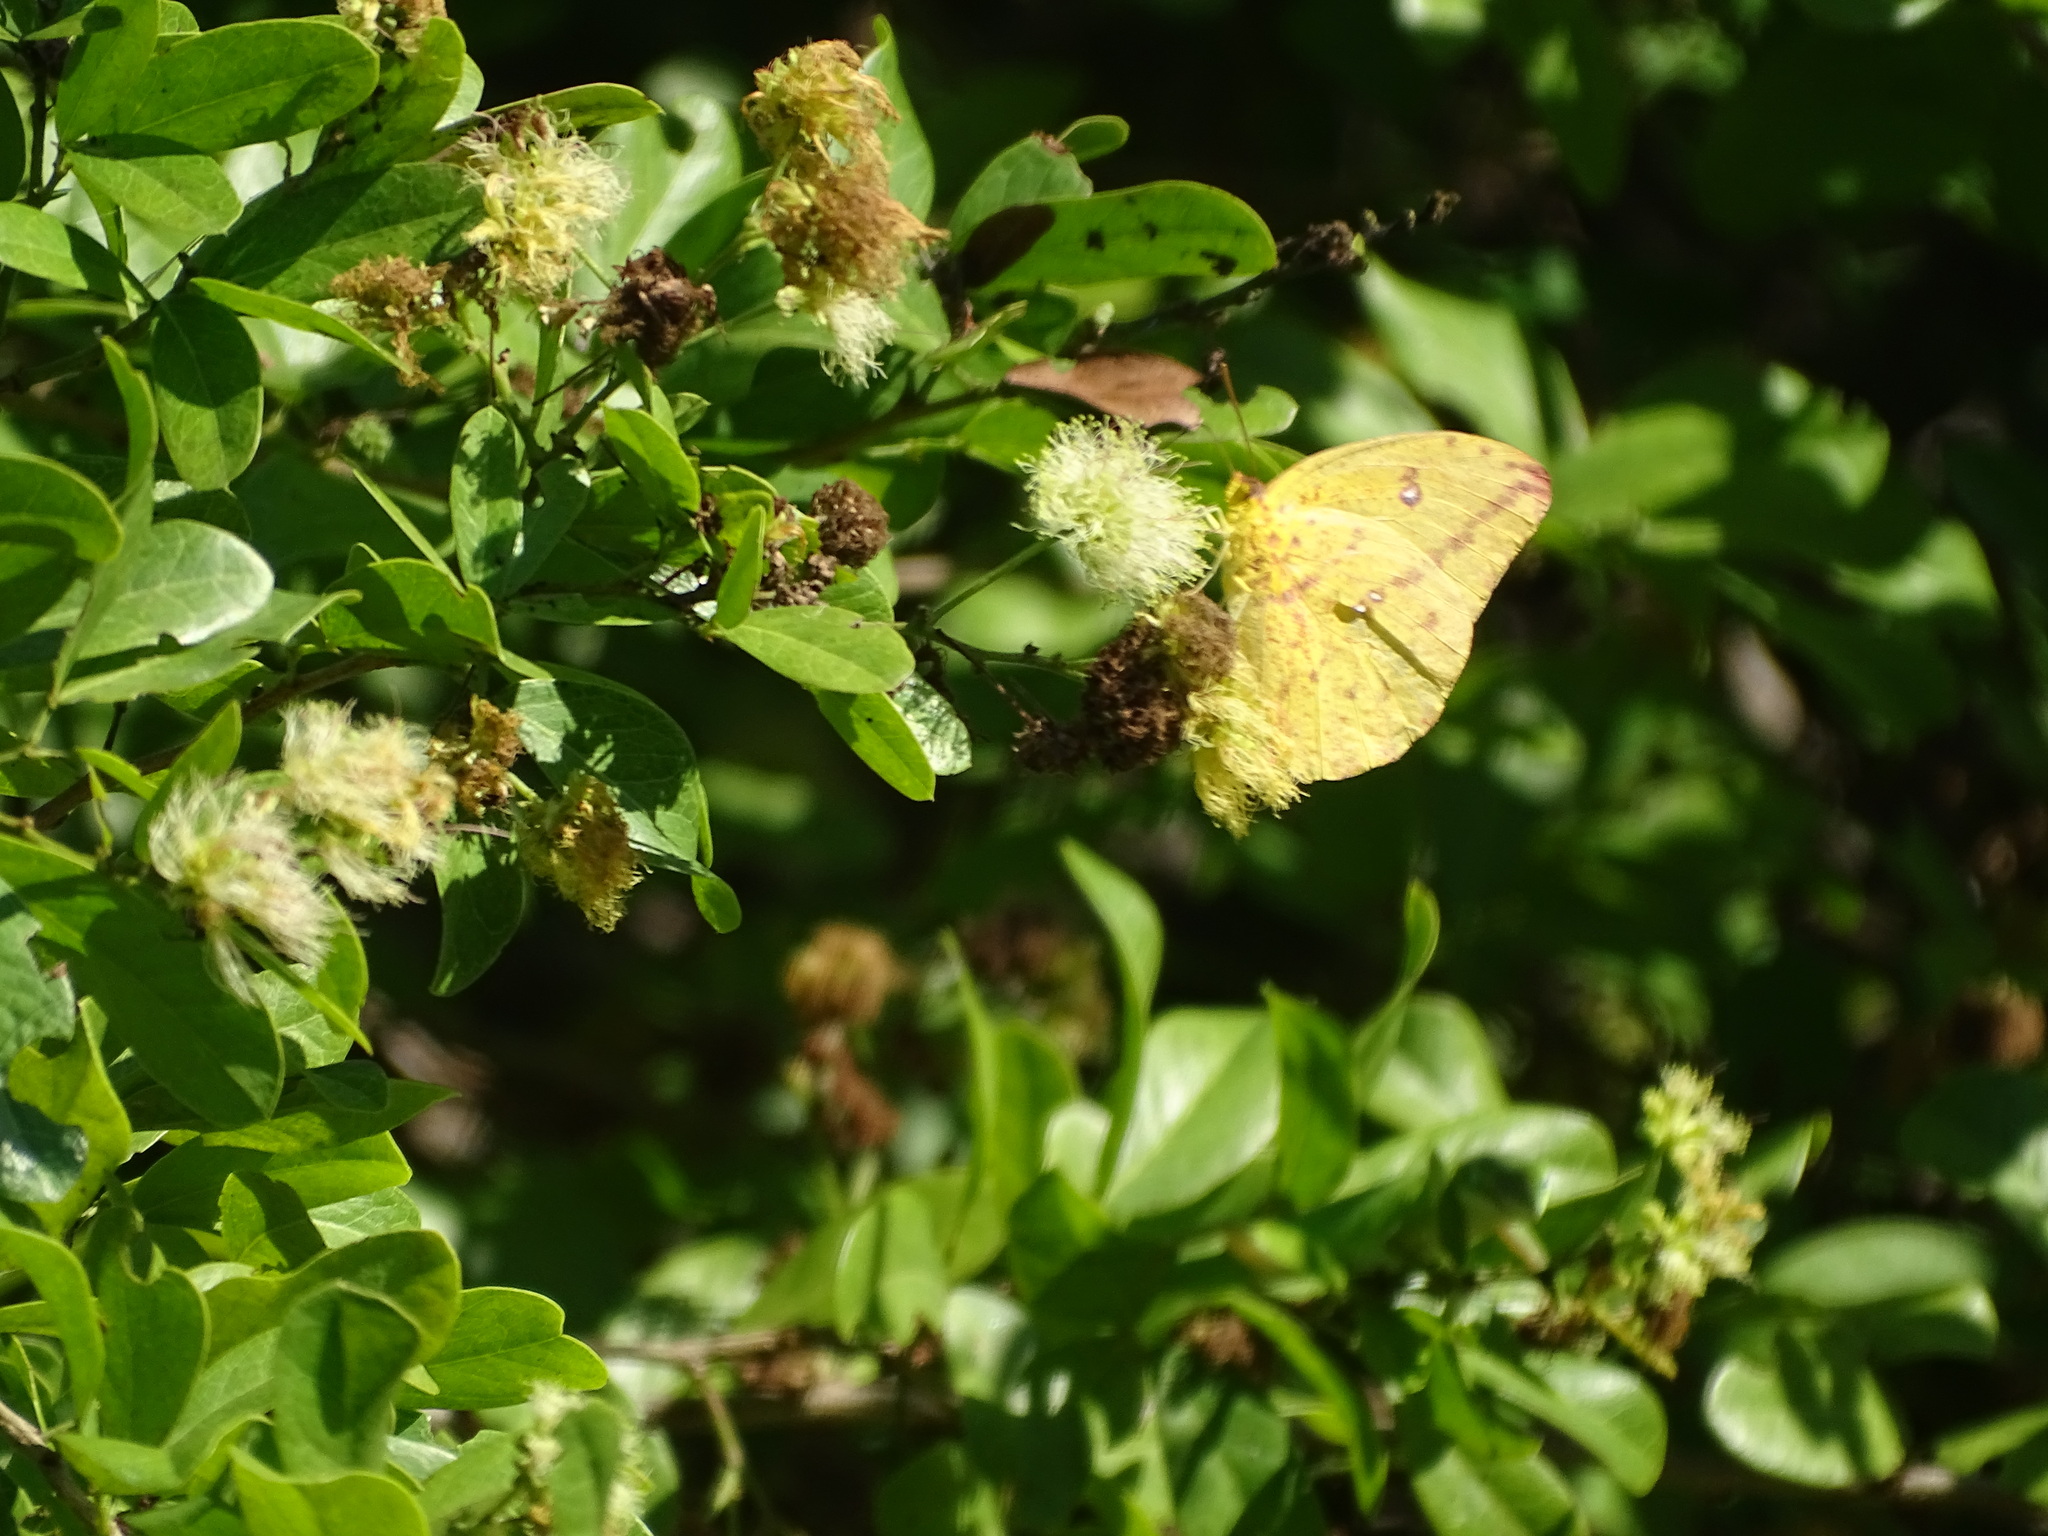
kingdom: Animalia
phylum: Arthropoda
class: Insecta
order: Lepidoptera
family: Pieridae
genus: Phoebis
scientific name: Phoebis agarithe
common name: Large orange sulphur
